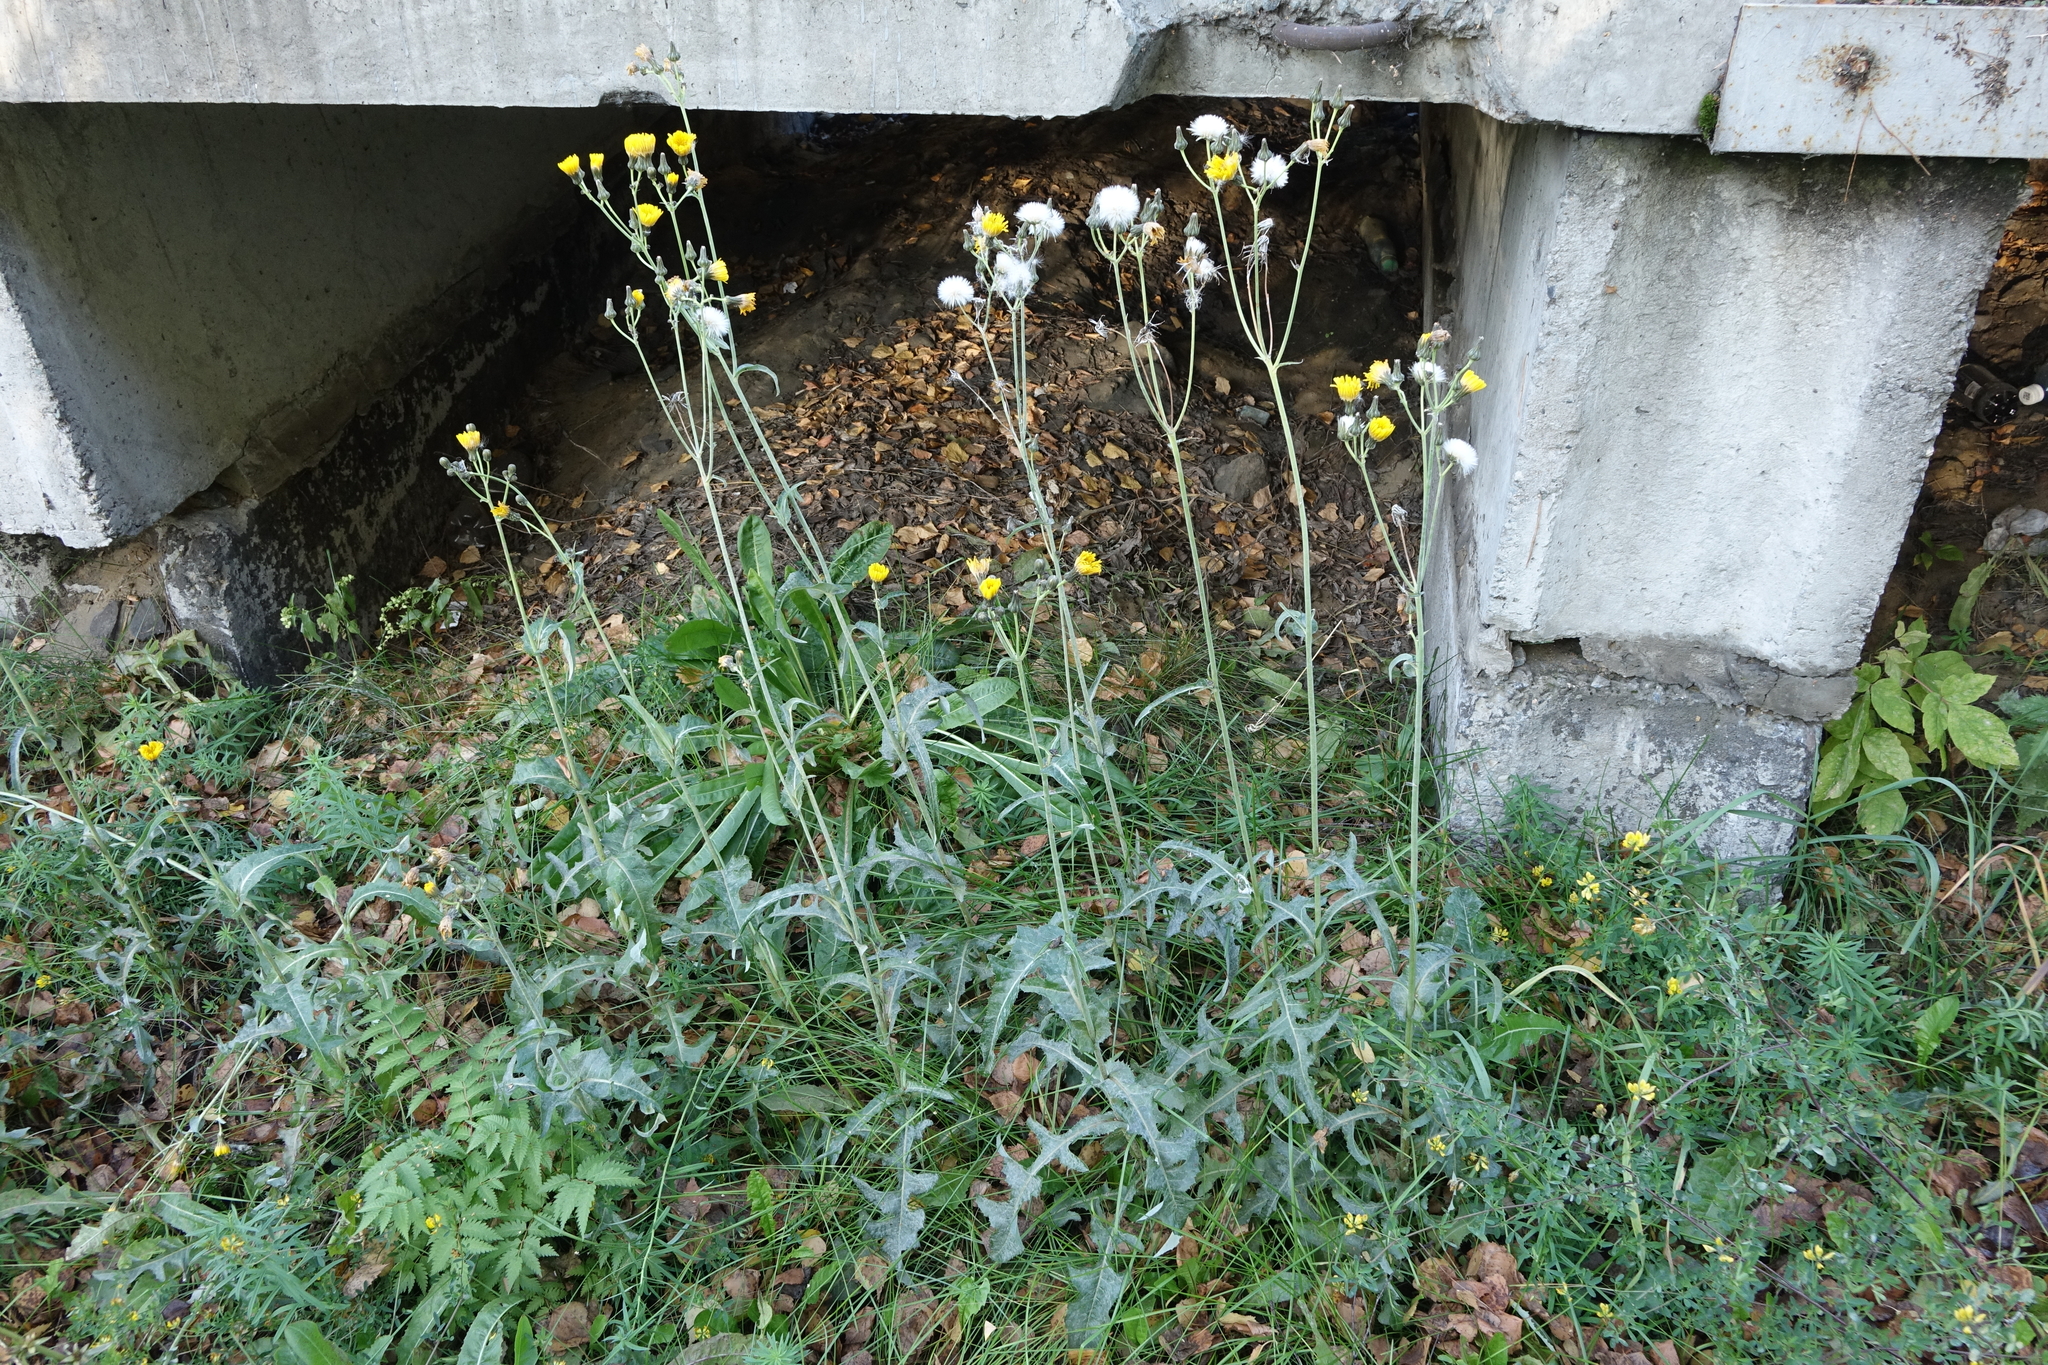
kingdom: Plantae
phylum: Tracheophyta
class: Magnoliopsida
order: Asterales
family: Asteraceae
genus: Sonchus
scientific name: Sonchus arvensis
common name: Perennial sow-thistle
